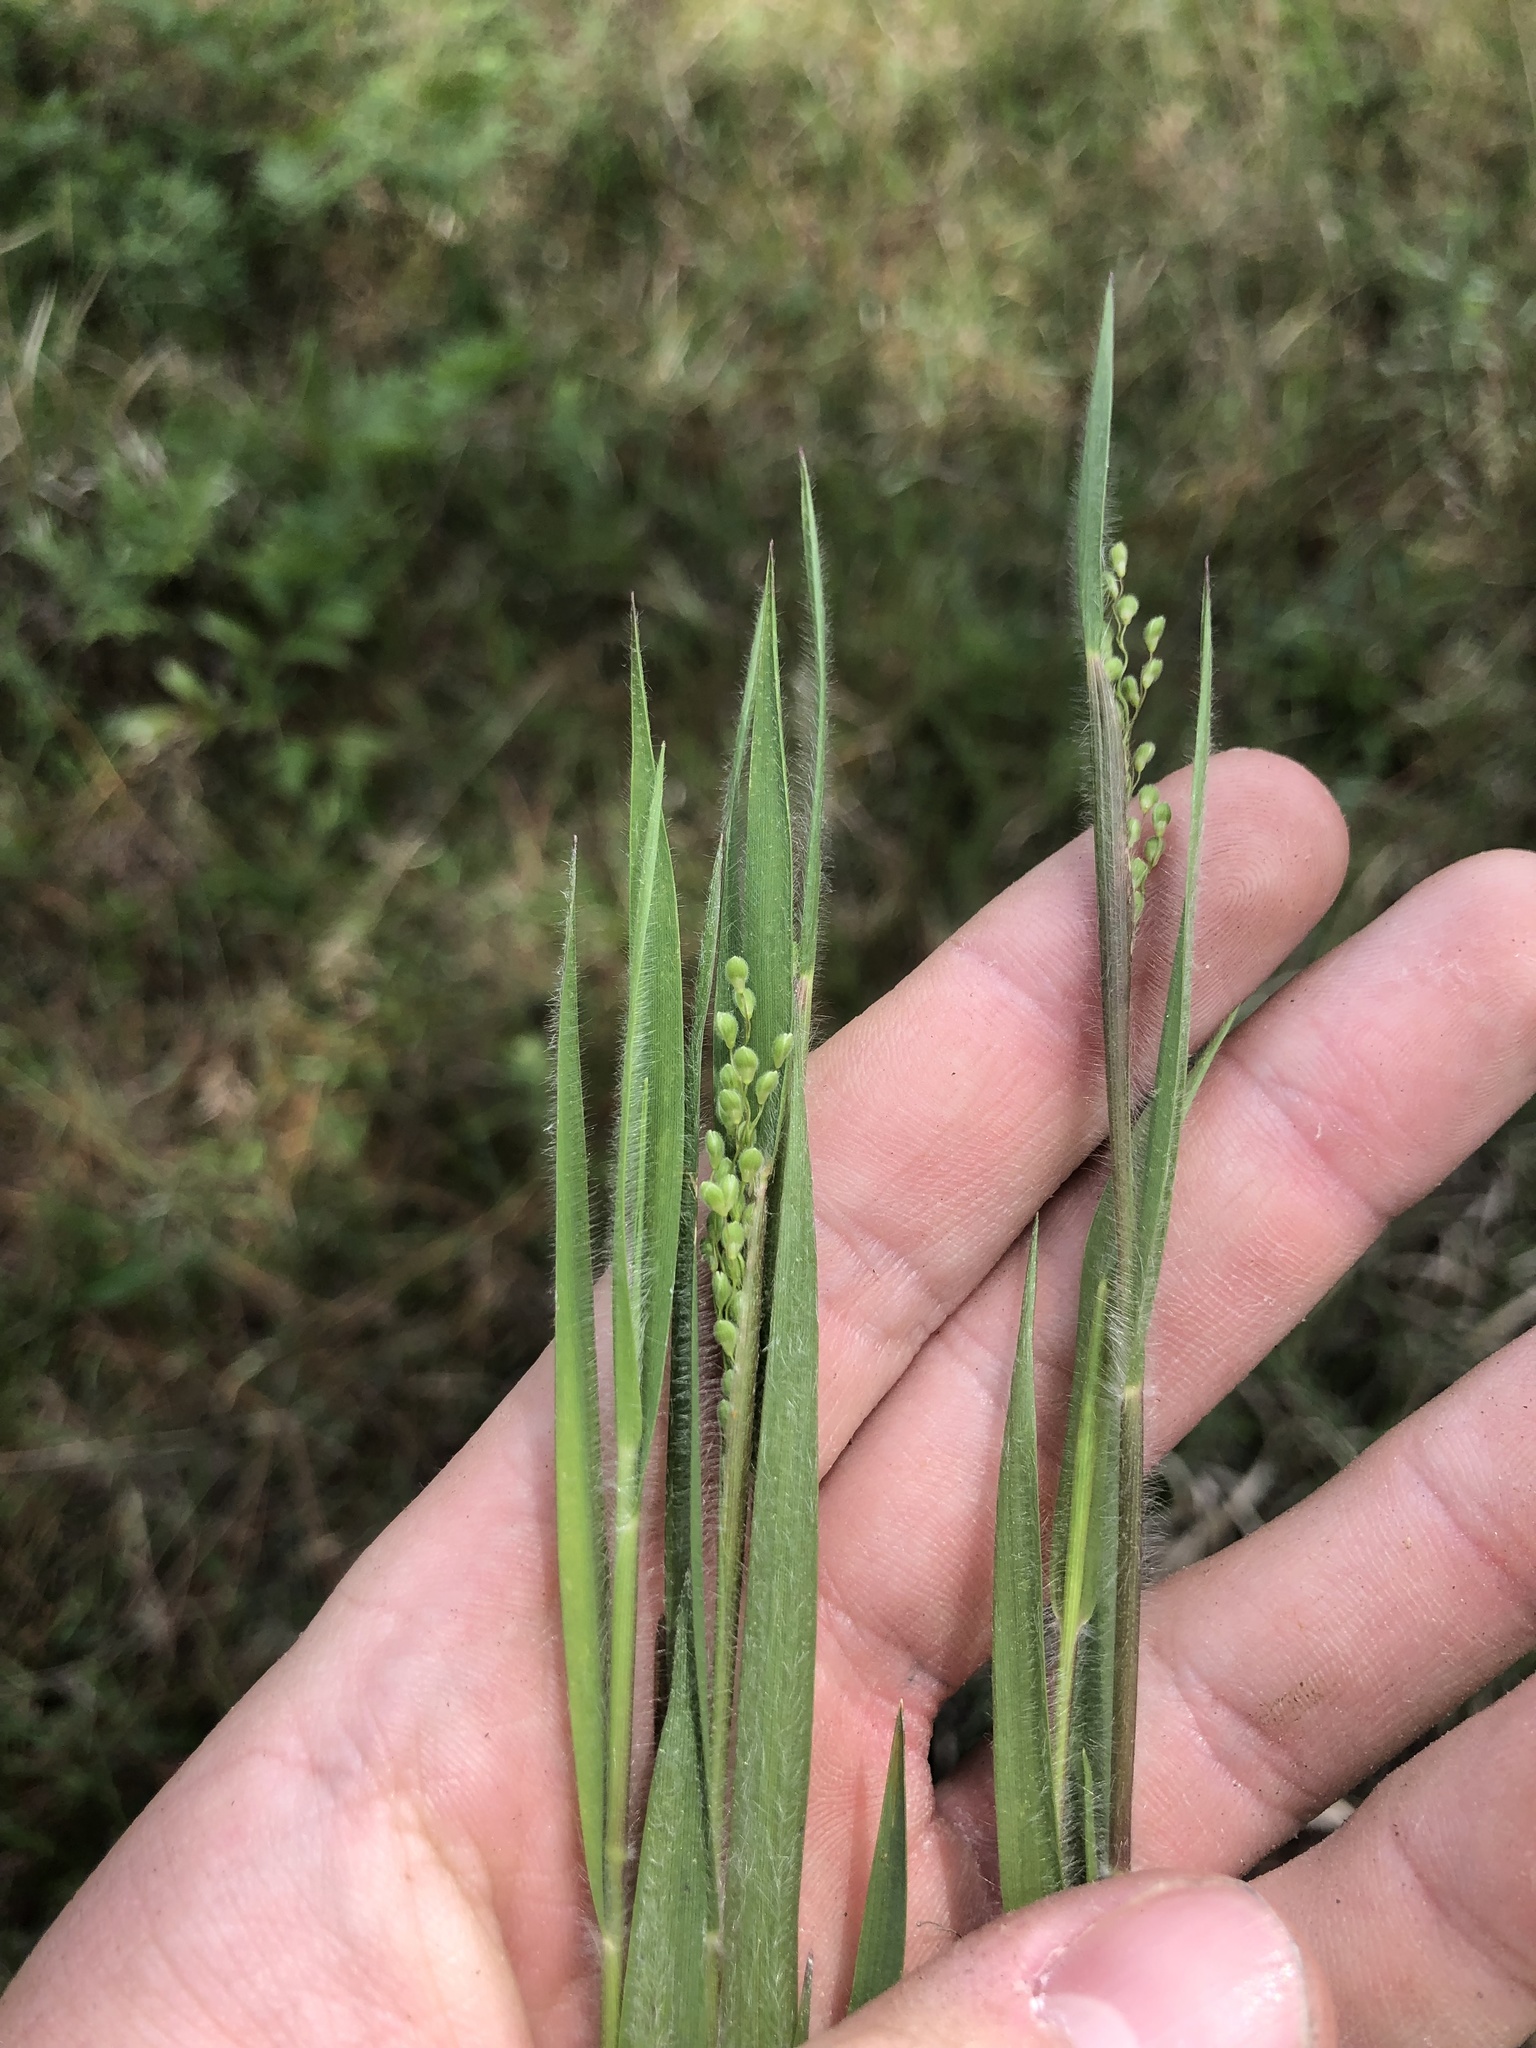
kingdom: Plantae
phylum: Tracheophyta
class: Liliopsida
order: Poales
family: Poaceae
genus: Dichanthelium
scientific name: Dichanthelium consanguineum
